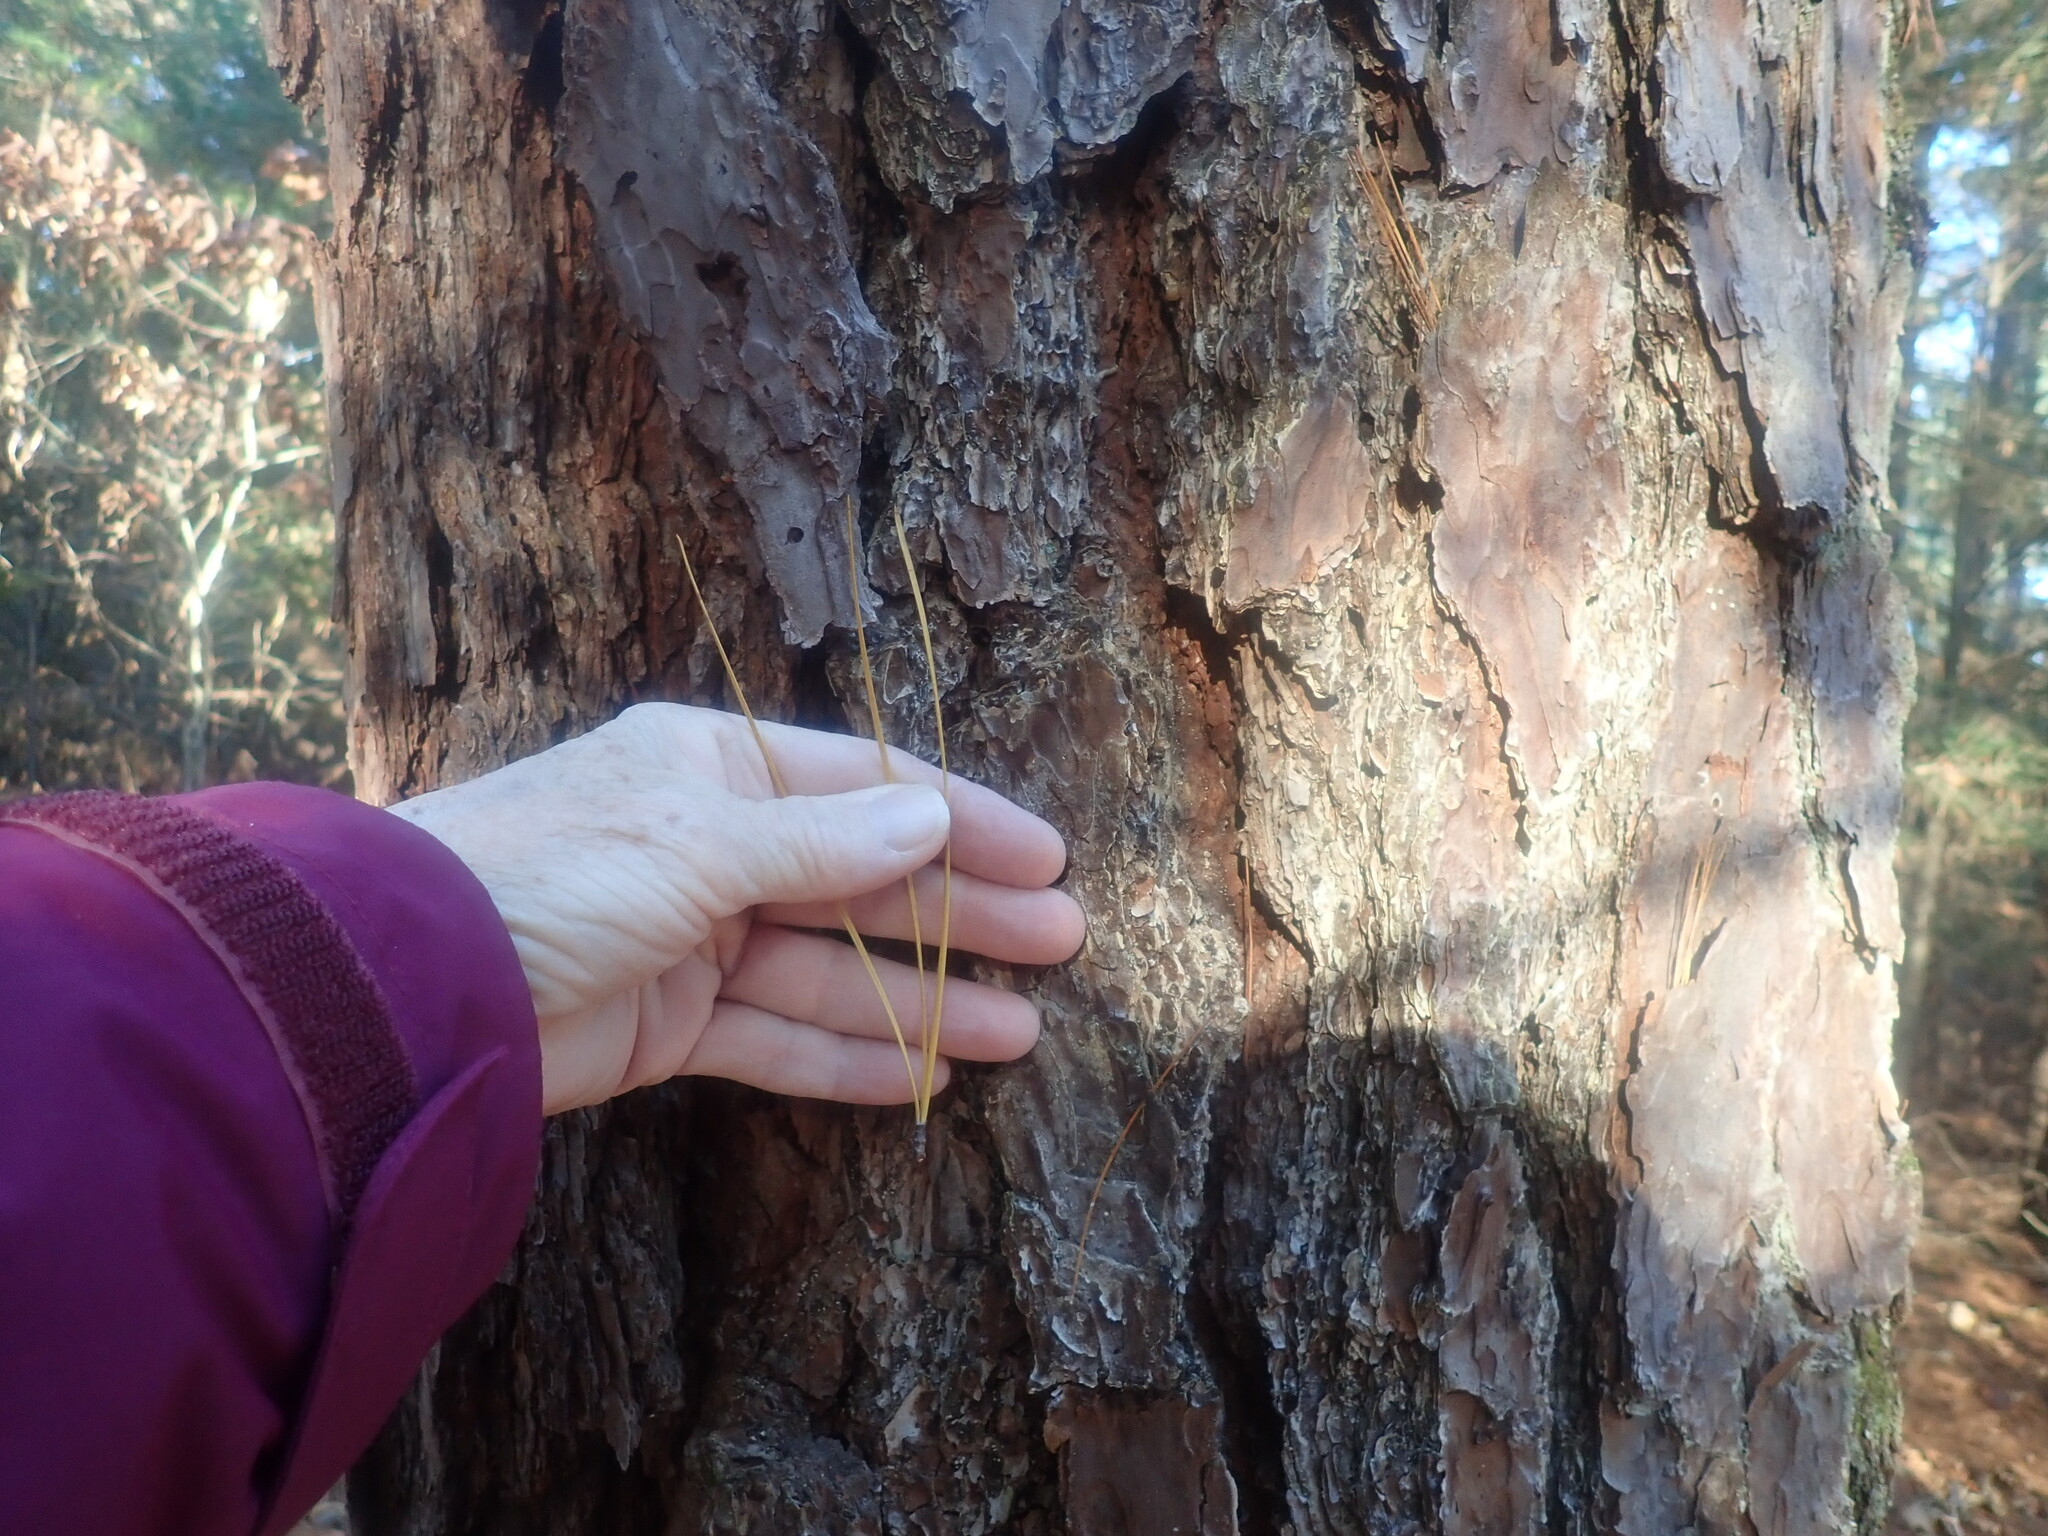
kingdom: Plantae
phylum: Tracheophyta
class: Pinopsida
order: Pinales
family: Pinaceae
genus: Pinus
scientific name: Pinus rigida
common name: Pitch pine
